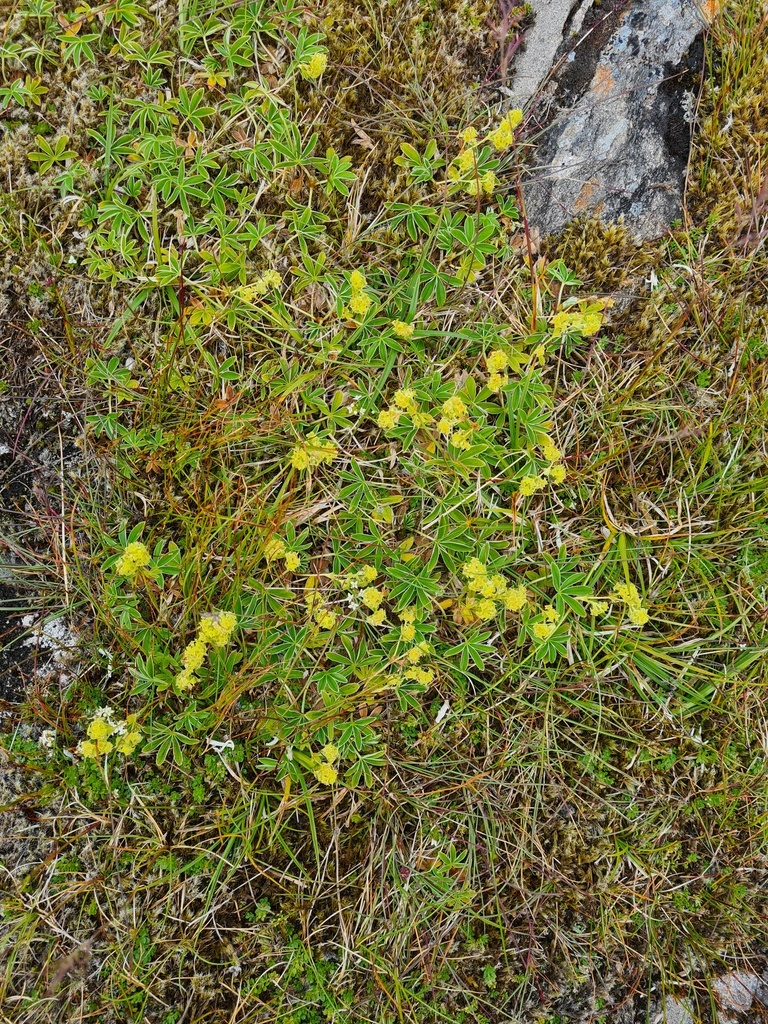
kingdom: Plantae
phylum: Tracheophyta
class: Magnoliopsida
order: Rosales
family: Rosaceae
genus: Alchemilla
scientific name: Alchemilla alpina
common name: Alpine lady's-mantle
